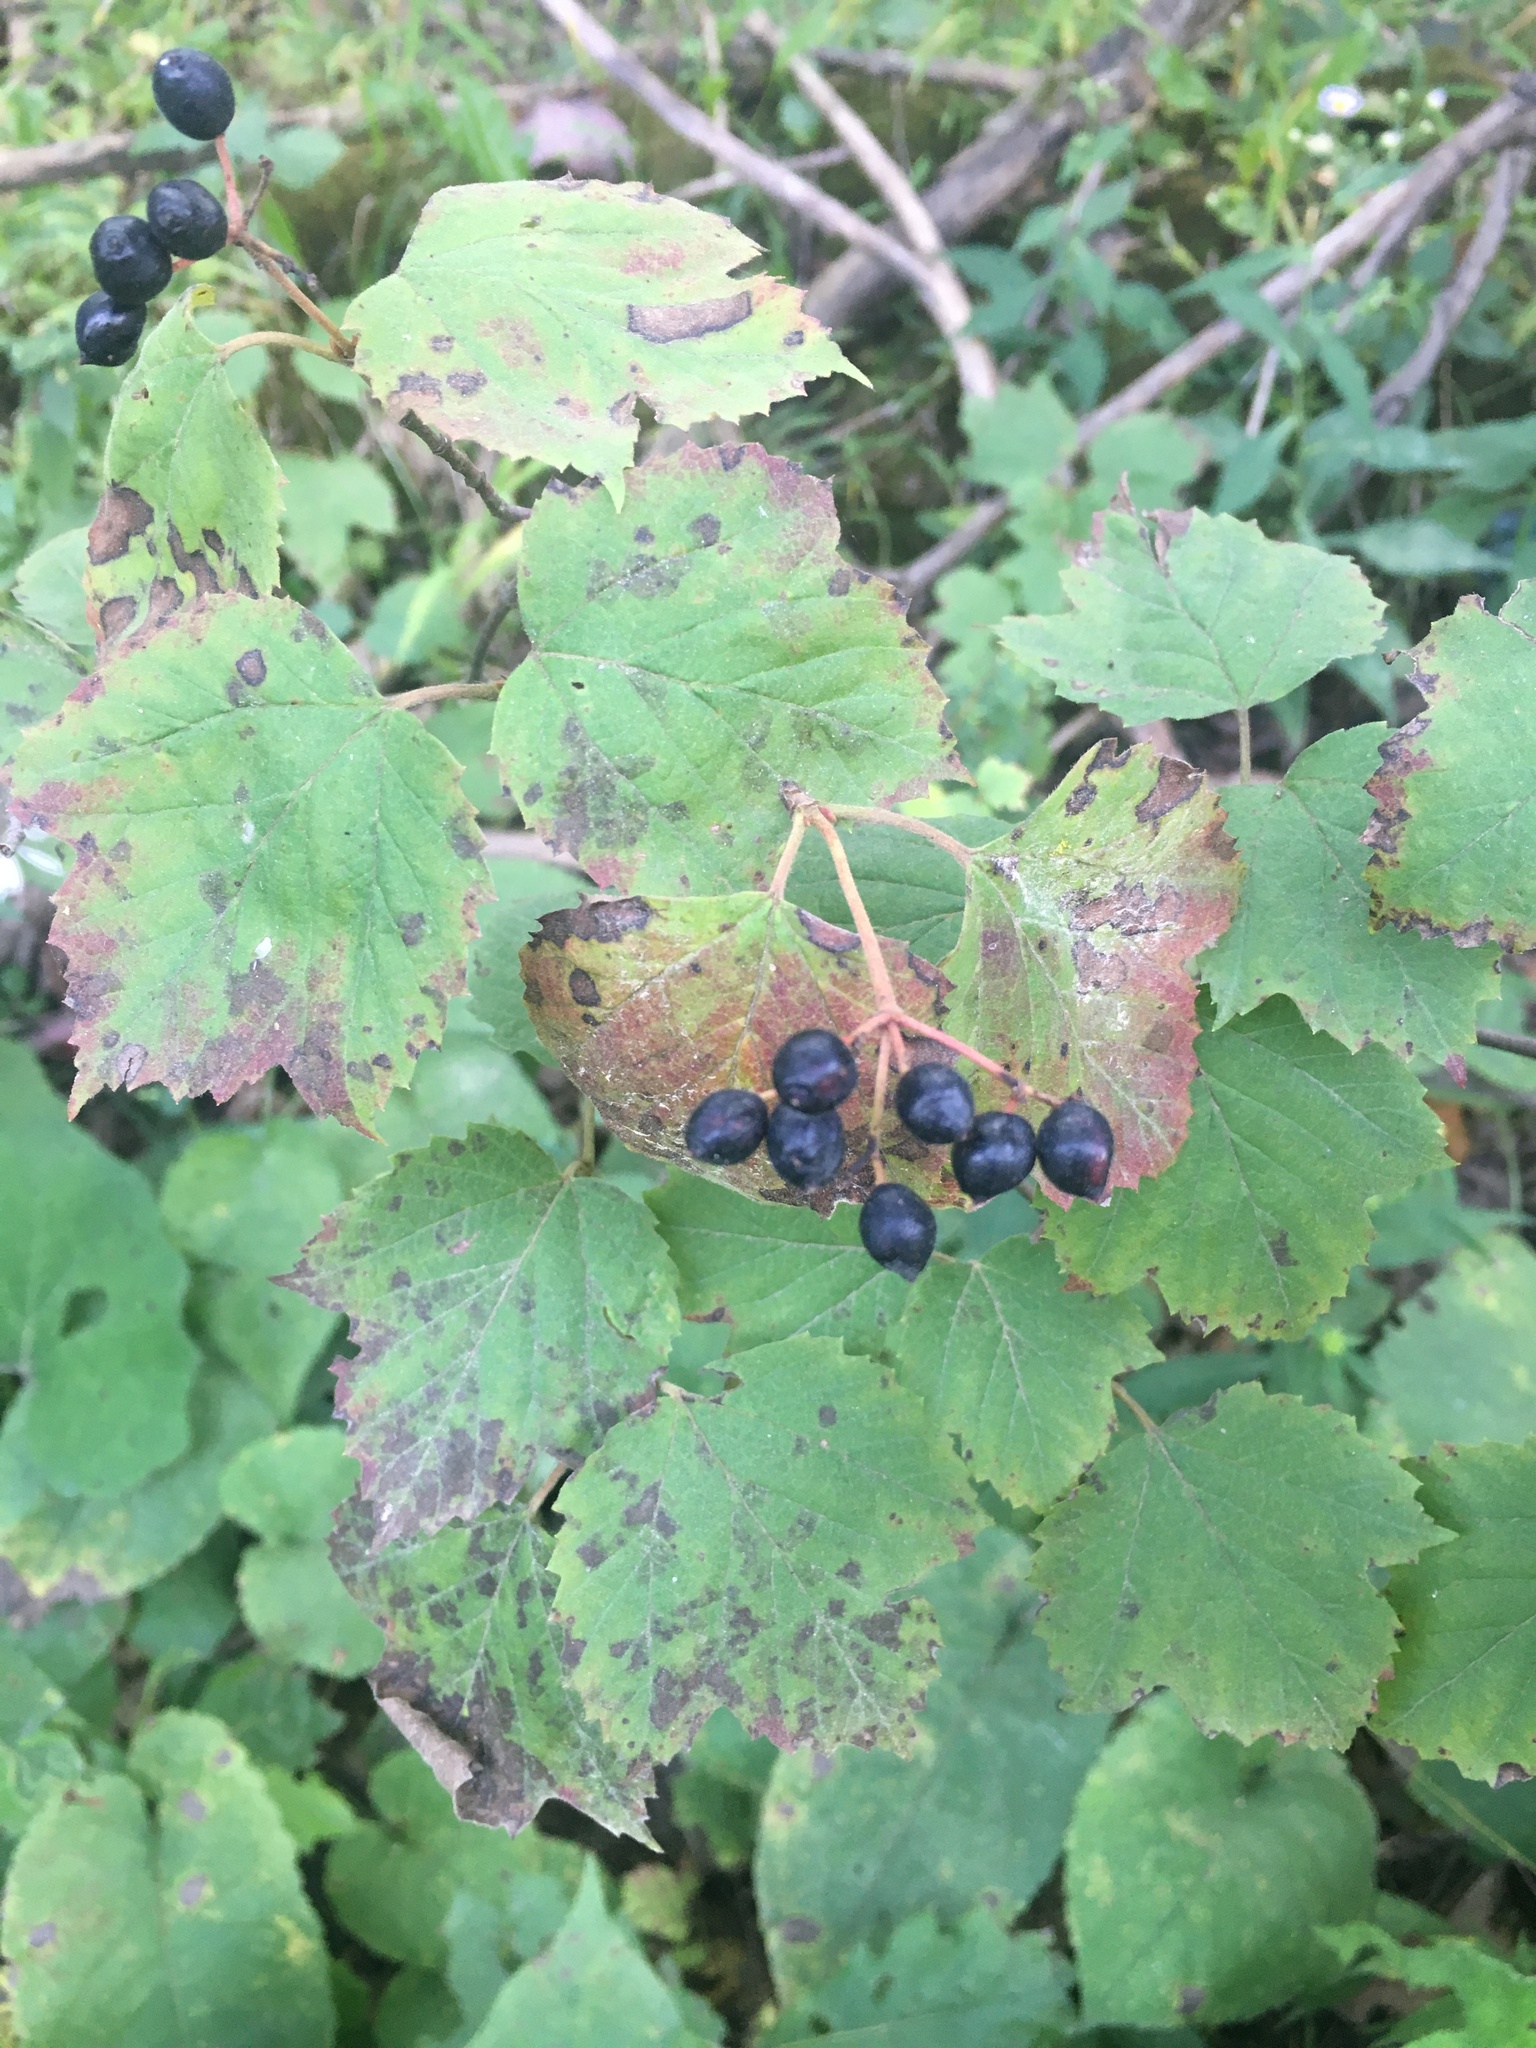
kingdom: Plantae
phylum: Tracheophyta
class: Magnoliopsida
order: Dipsacales
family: Viburnaceae
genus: Viburnum
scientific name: Viburnum acerifolium
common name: Dockmackie
